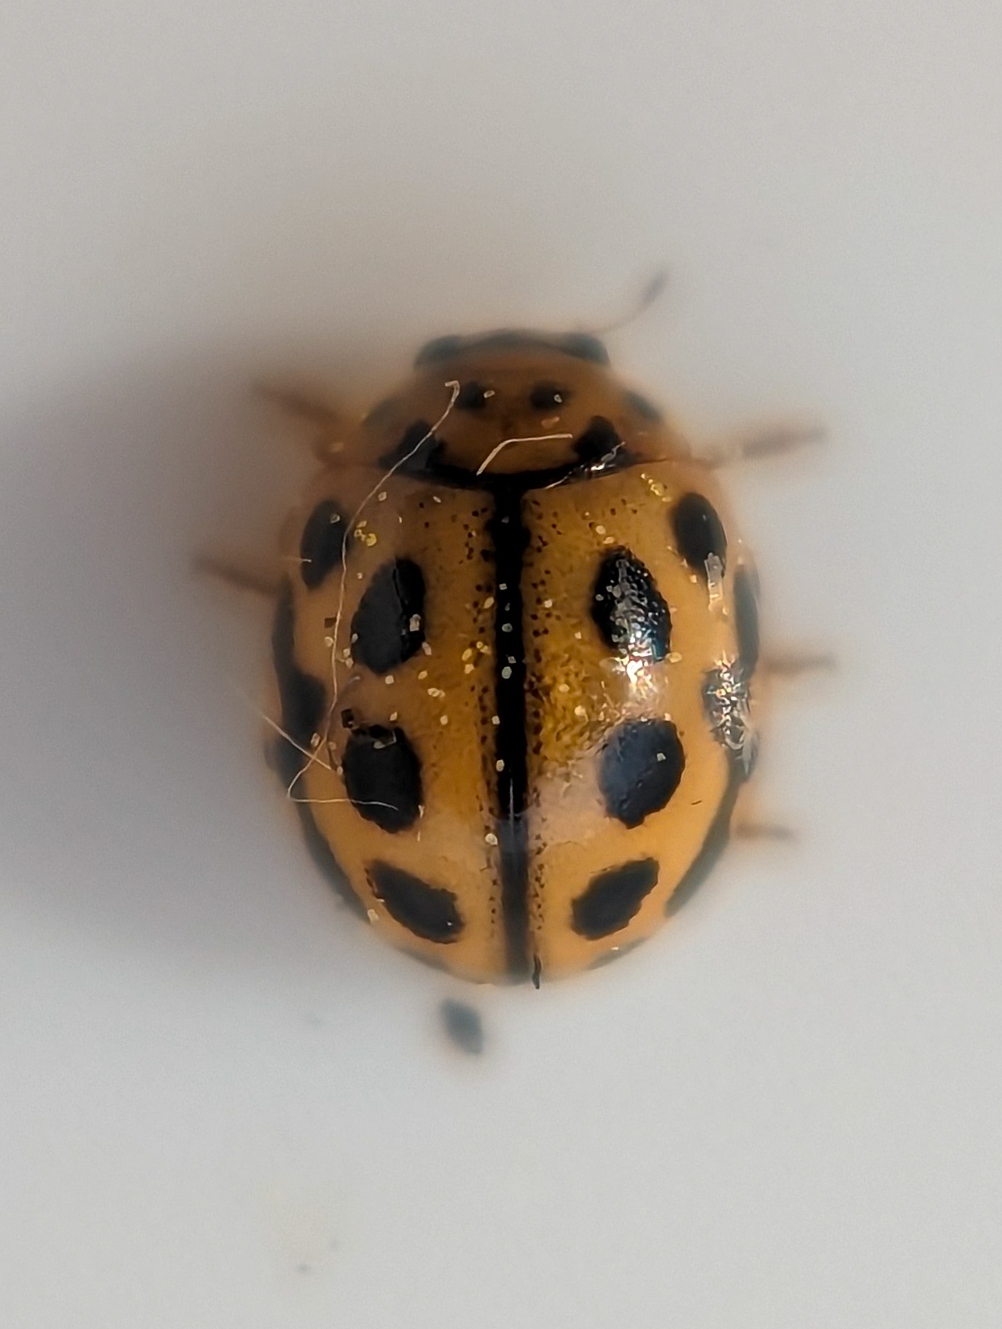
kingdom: Animalia
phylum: Arthropoda
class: Insecta
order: Coleoptera
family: Coccinellidae
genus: Tytthaspis
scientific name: Tytthaspis sedecimpunctata
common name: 16-spot ladybird
